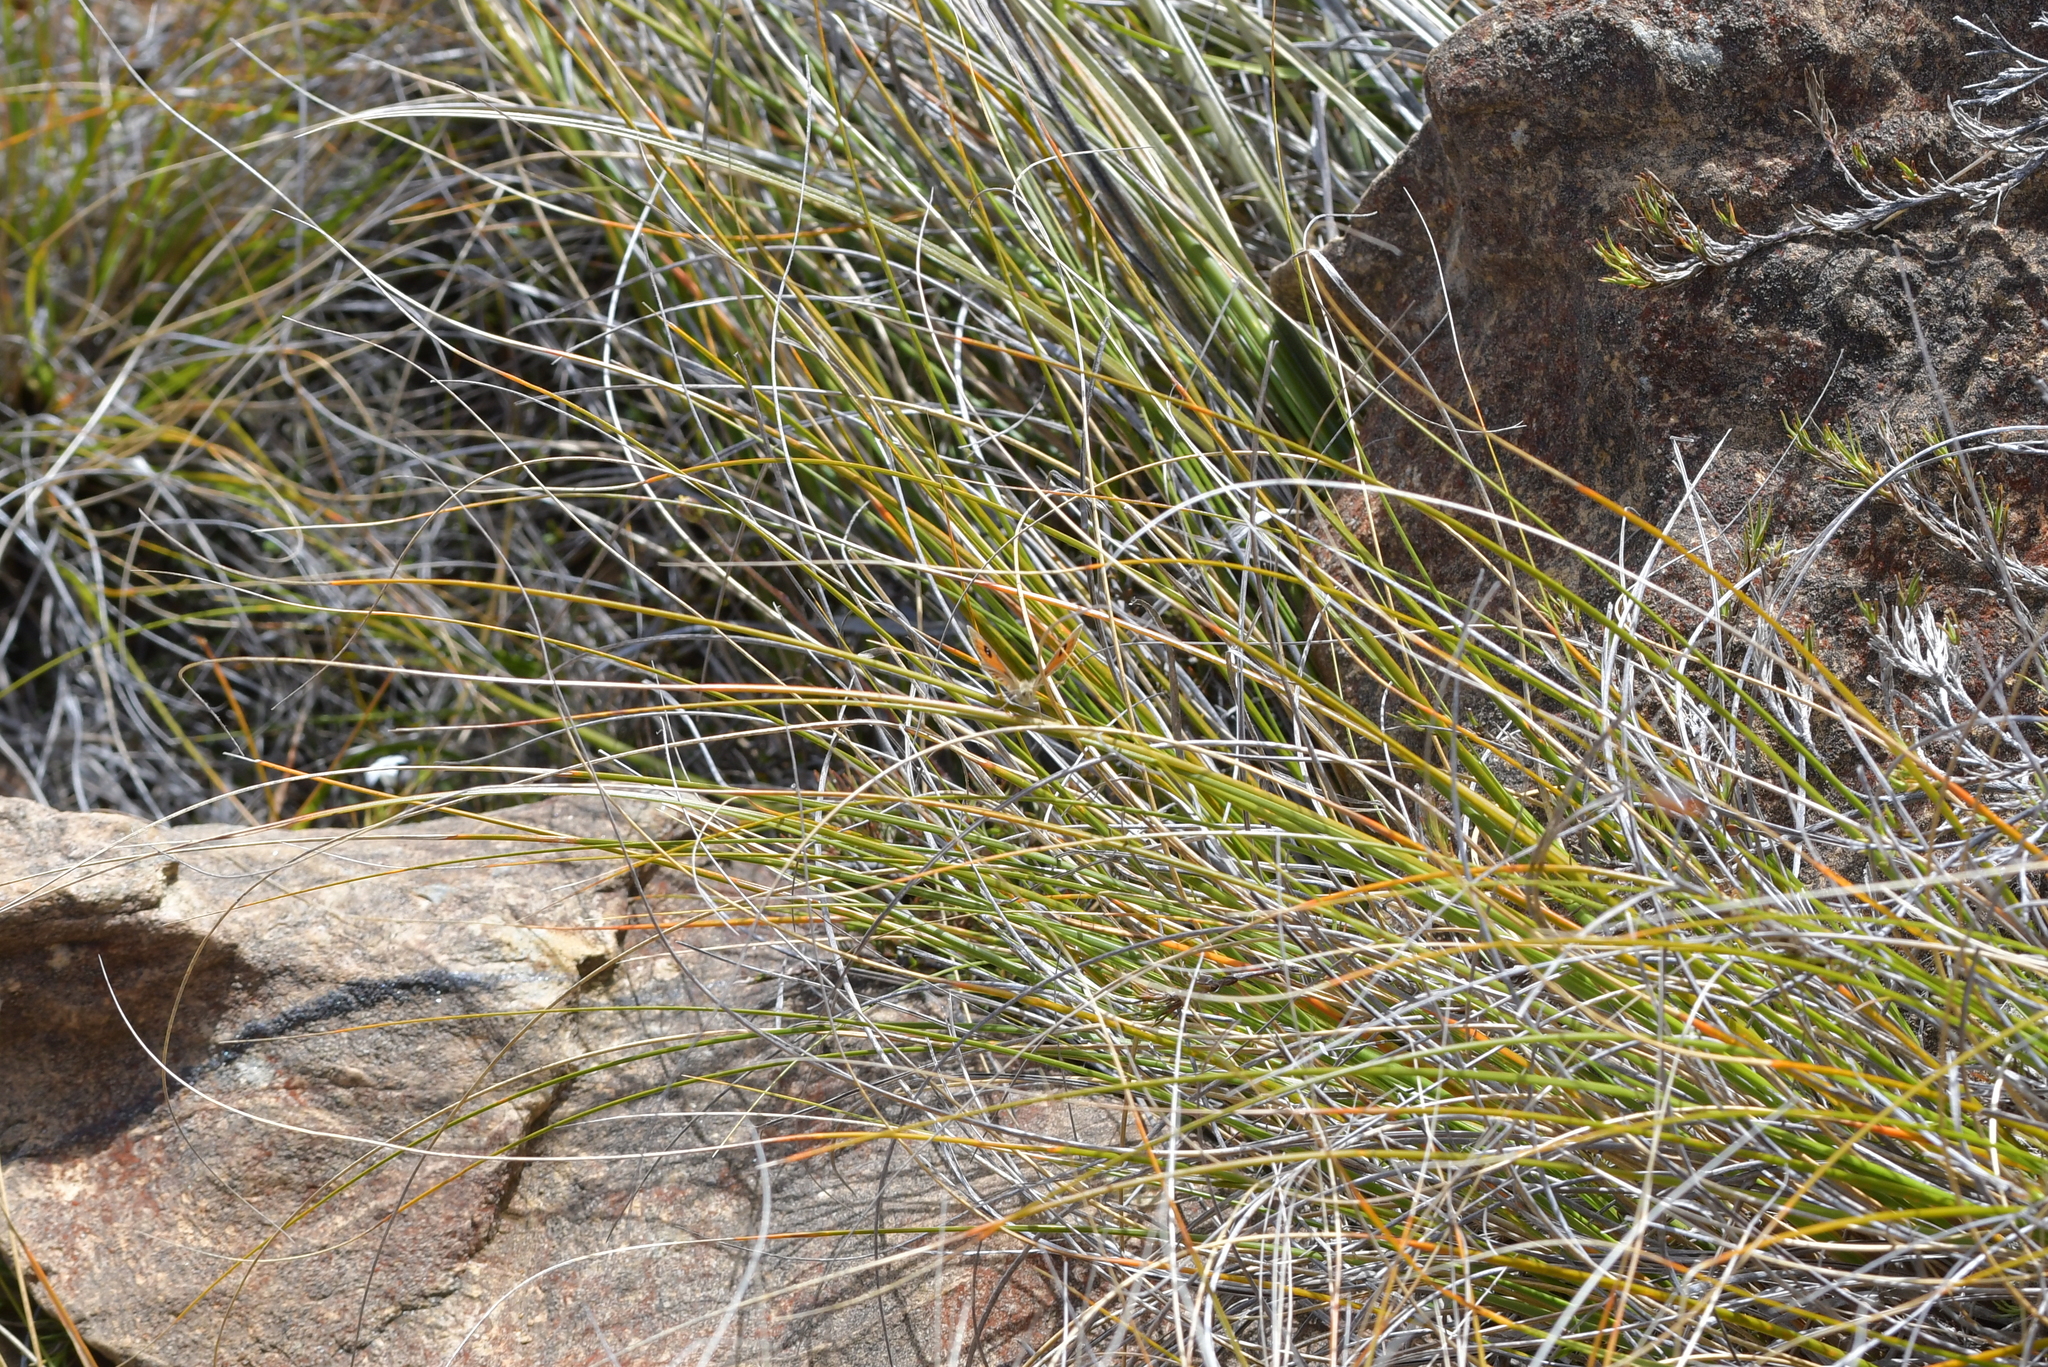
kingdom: Animalia
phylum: Arthropoda
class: Insecta
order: Lepidoptera
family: Nymphalidae
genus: Argyrophenga
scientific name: Argyrophenga janitae
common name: Janita's tussock
